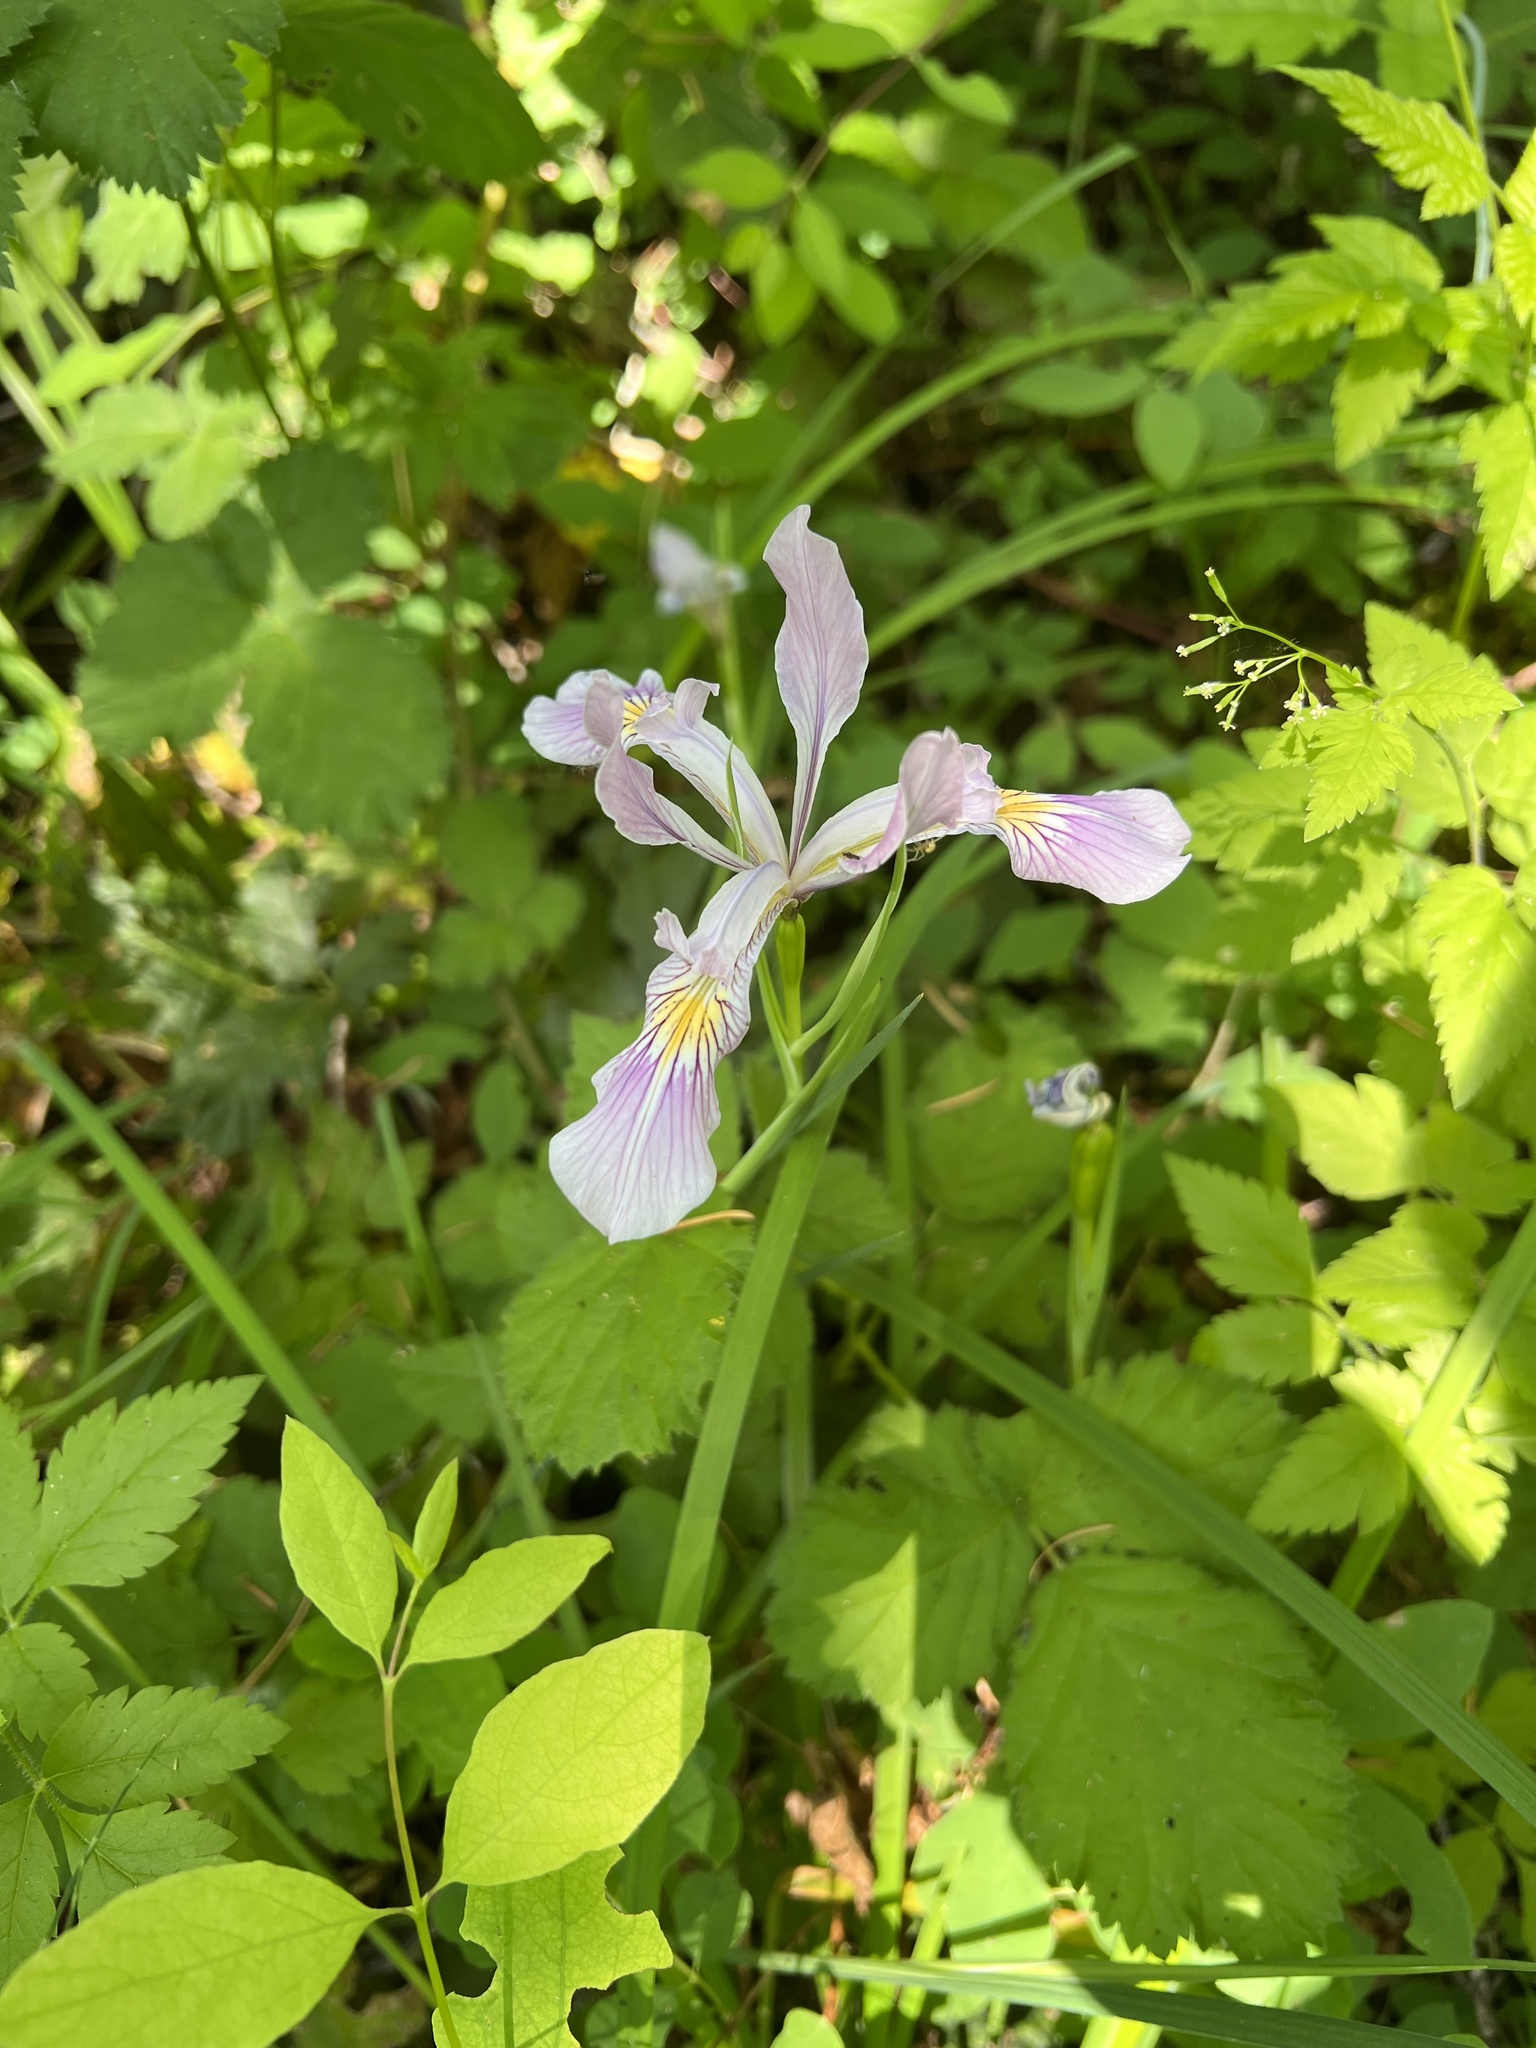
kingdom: Plantae
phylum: Tracheophyta
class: Liliopsida
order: Asparagales
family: Iridaceae
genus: Iris
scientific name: Iris tenax
